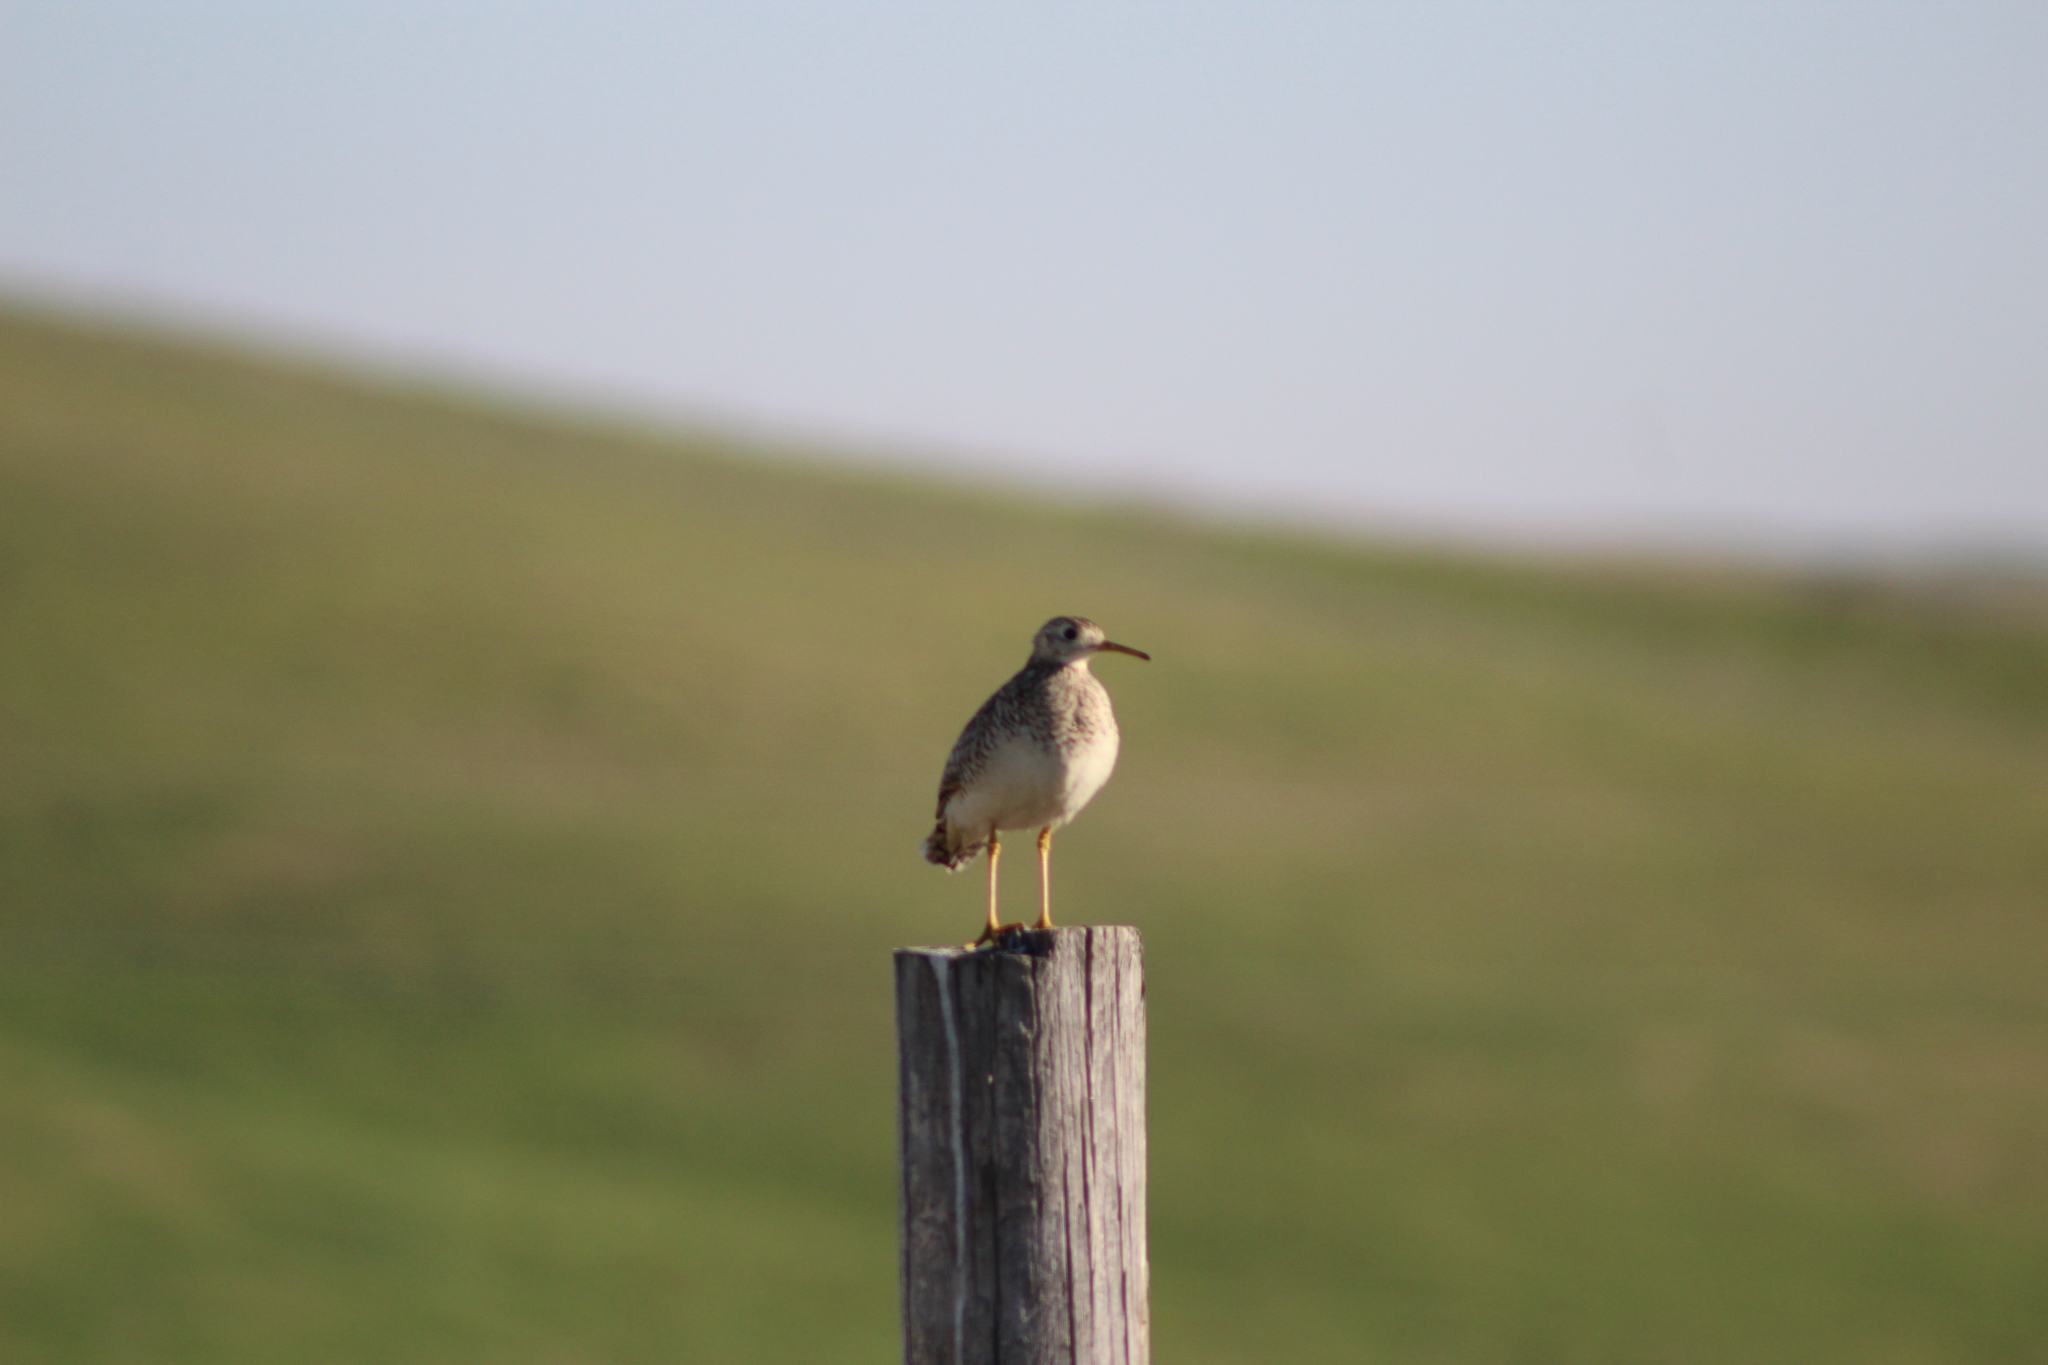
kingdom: Animalia
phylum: Chordata
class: Aves
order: Charadriiformes
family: Scolopacidae
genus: Bartramia
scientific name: Bartramia longicauda
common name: Upland sandpiper
